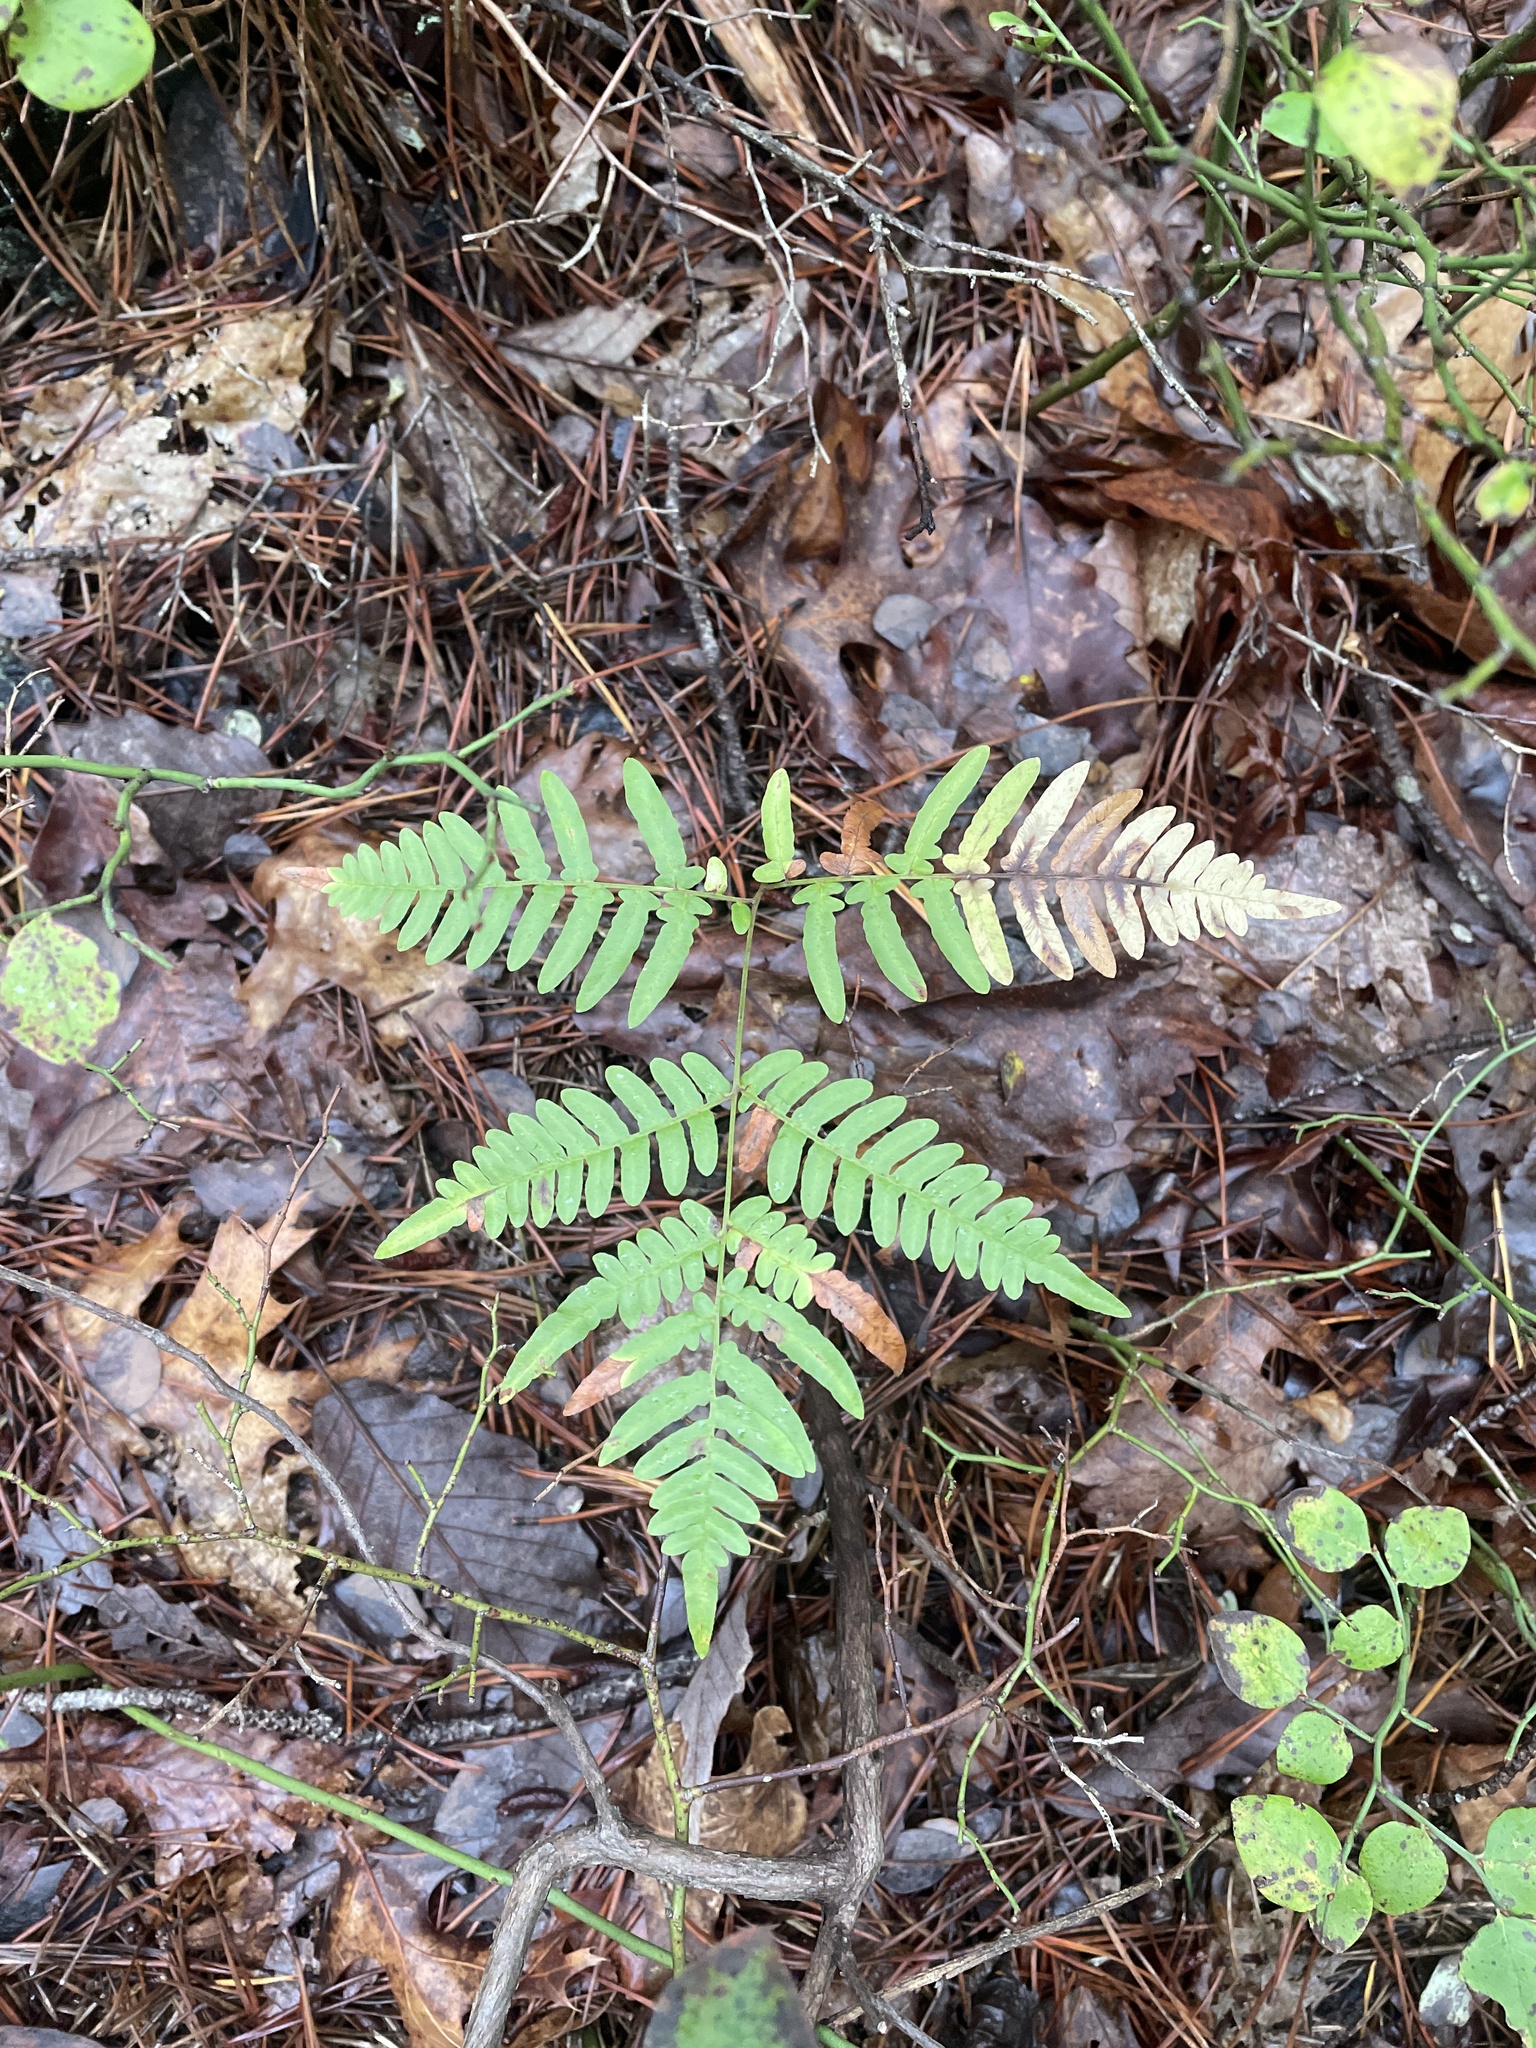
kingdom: Plantae
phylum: Tracheophyta
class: Polypodiopsida
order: Polypodiales
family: Dennstaedtiaceae
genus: Pteridium
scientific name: Pteridium aquilinum
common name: Bracken
